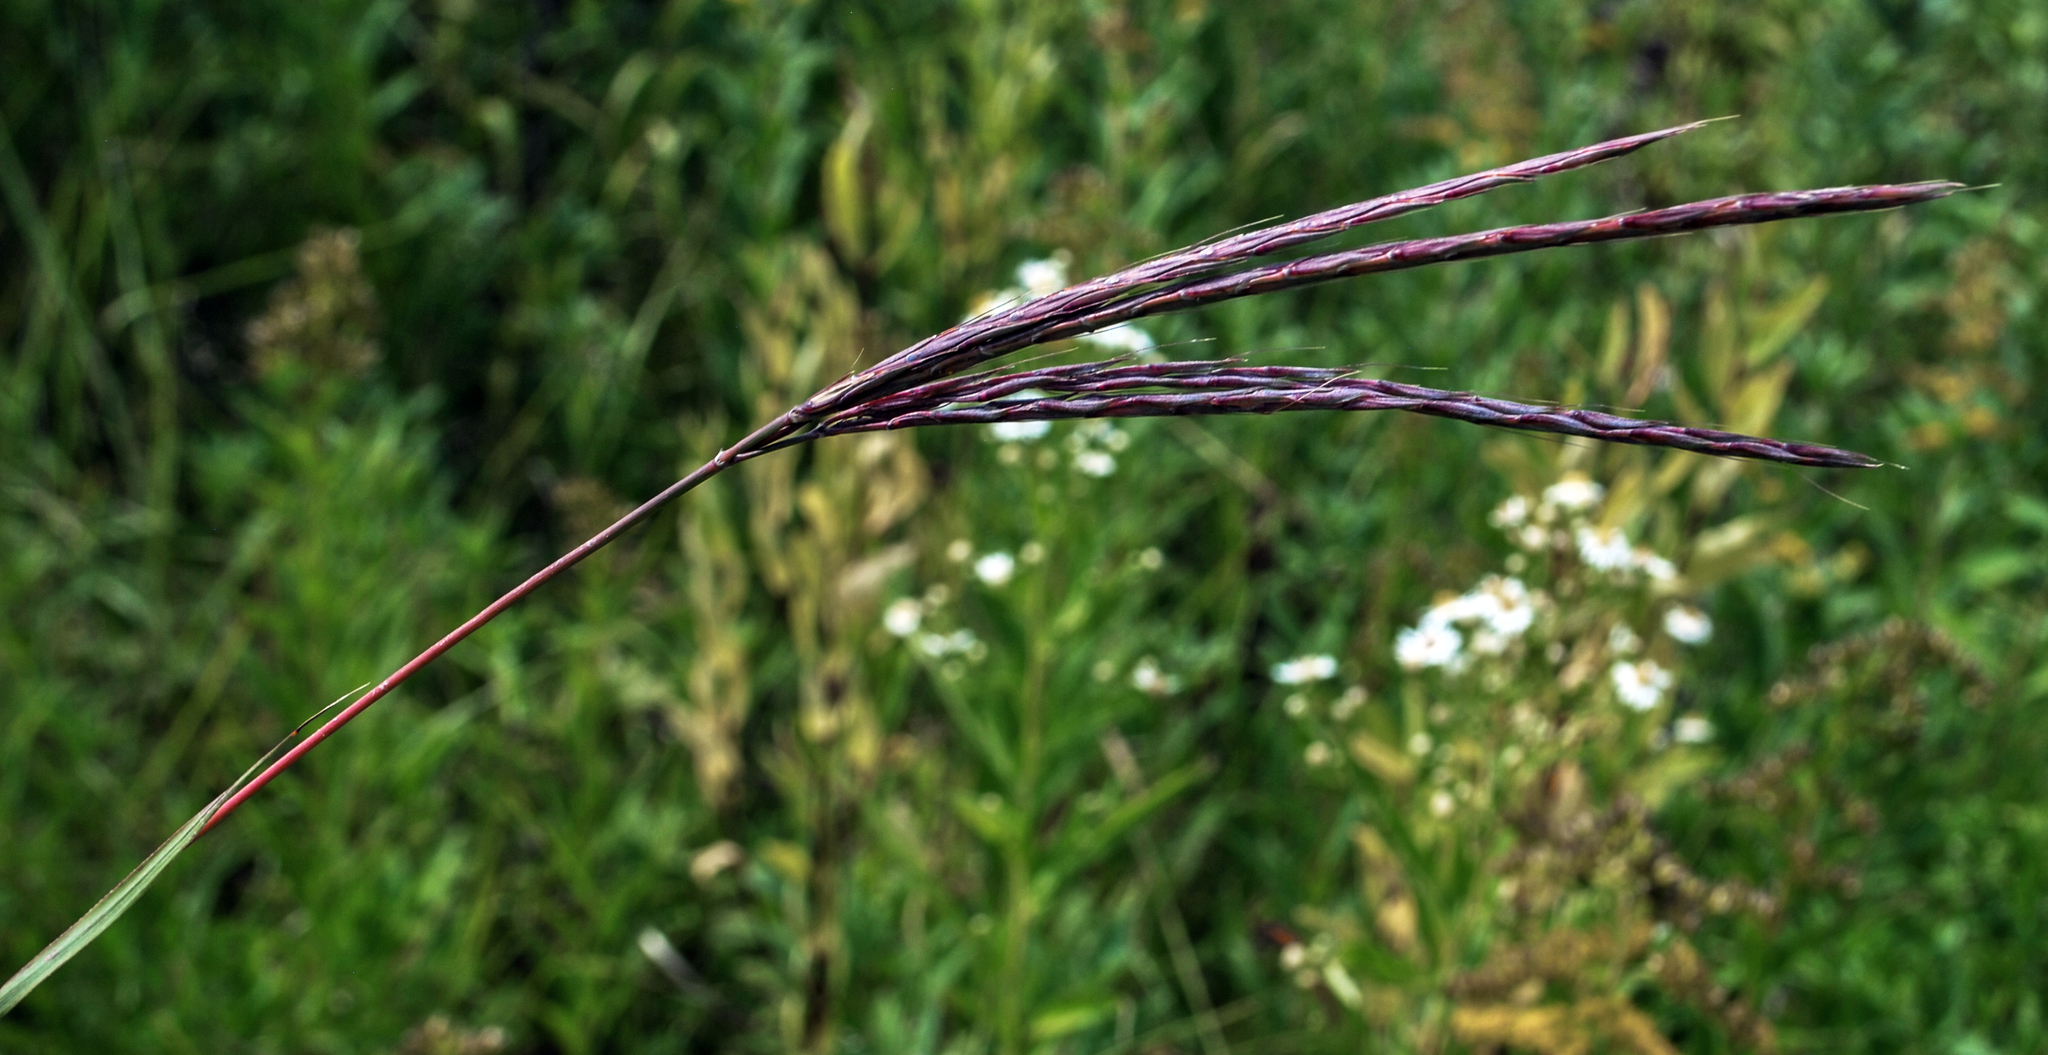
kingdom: Plantae
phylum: Tracheophyta
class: Liliopsida
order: Poales
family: Poaceae
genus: Andropogon
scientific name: Andropogon gerardi
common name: Big bluestem
